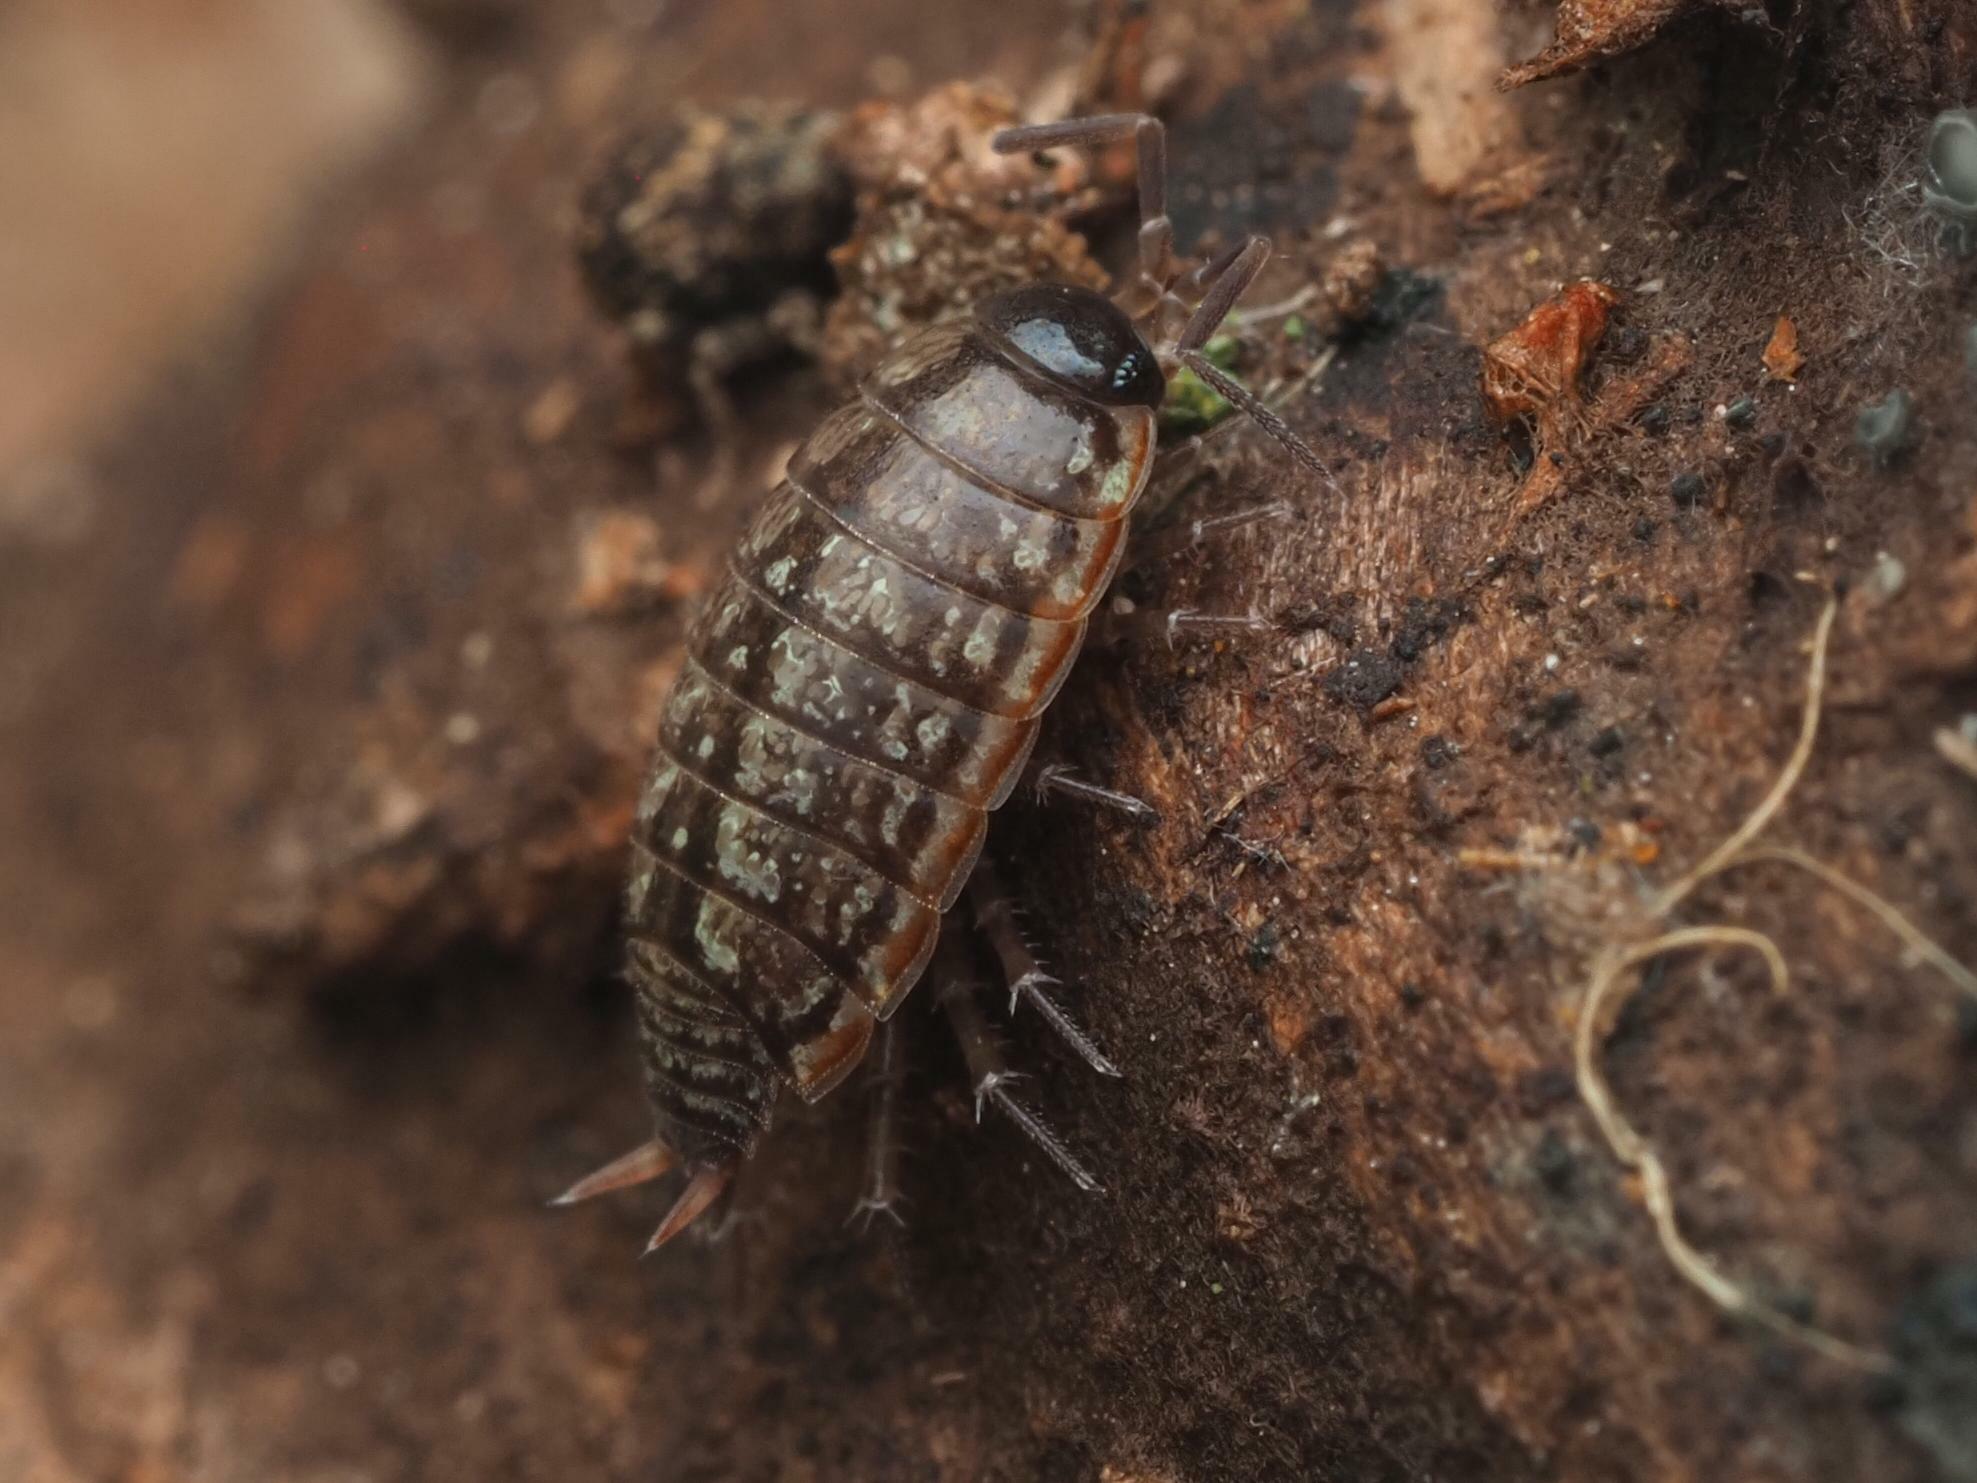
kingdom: Animalia
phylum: Arthropoda
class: Malacostraca
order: Isopoda
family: Philosciidae
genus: Philoscia
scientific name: Philoscia muscorum
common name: Common striped woodlouse
